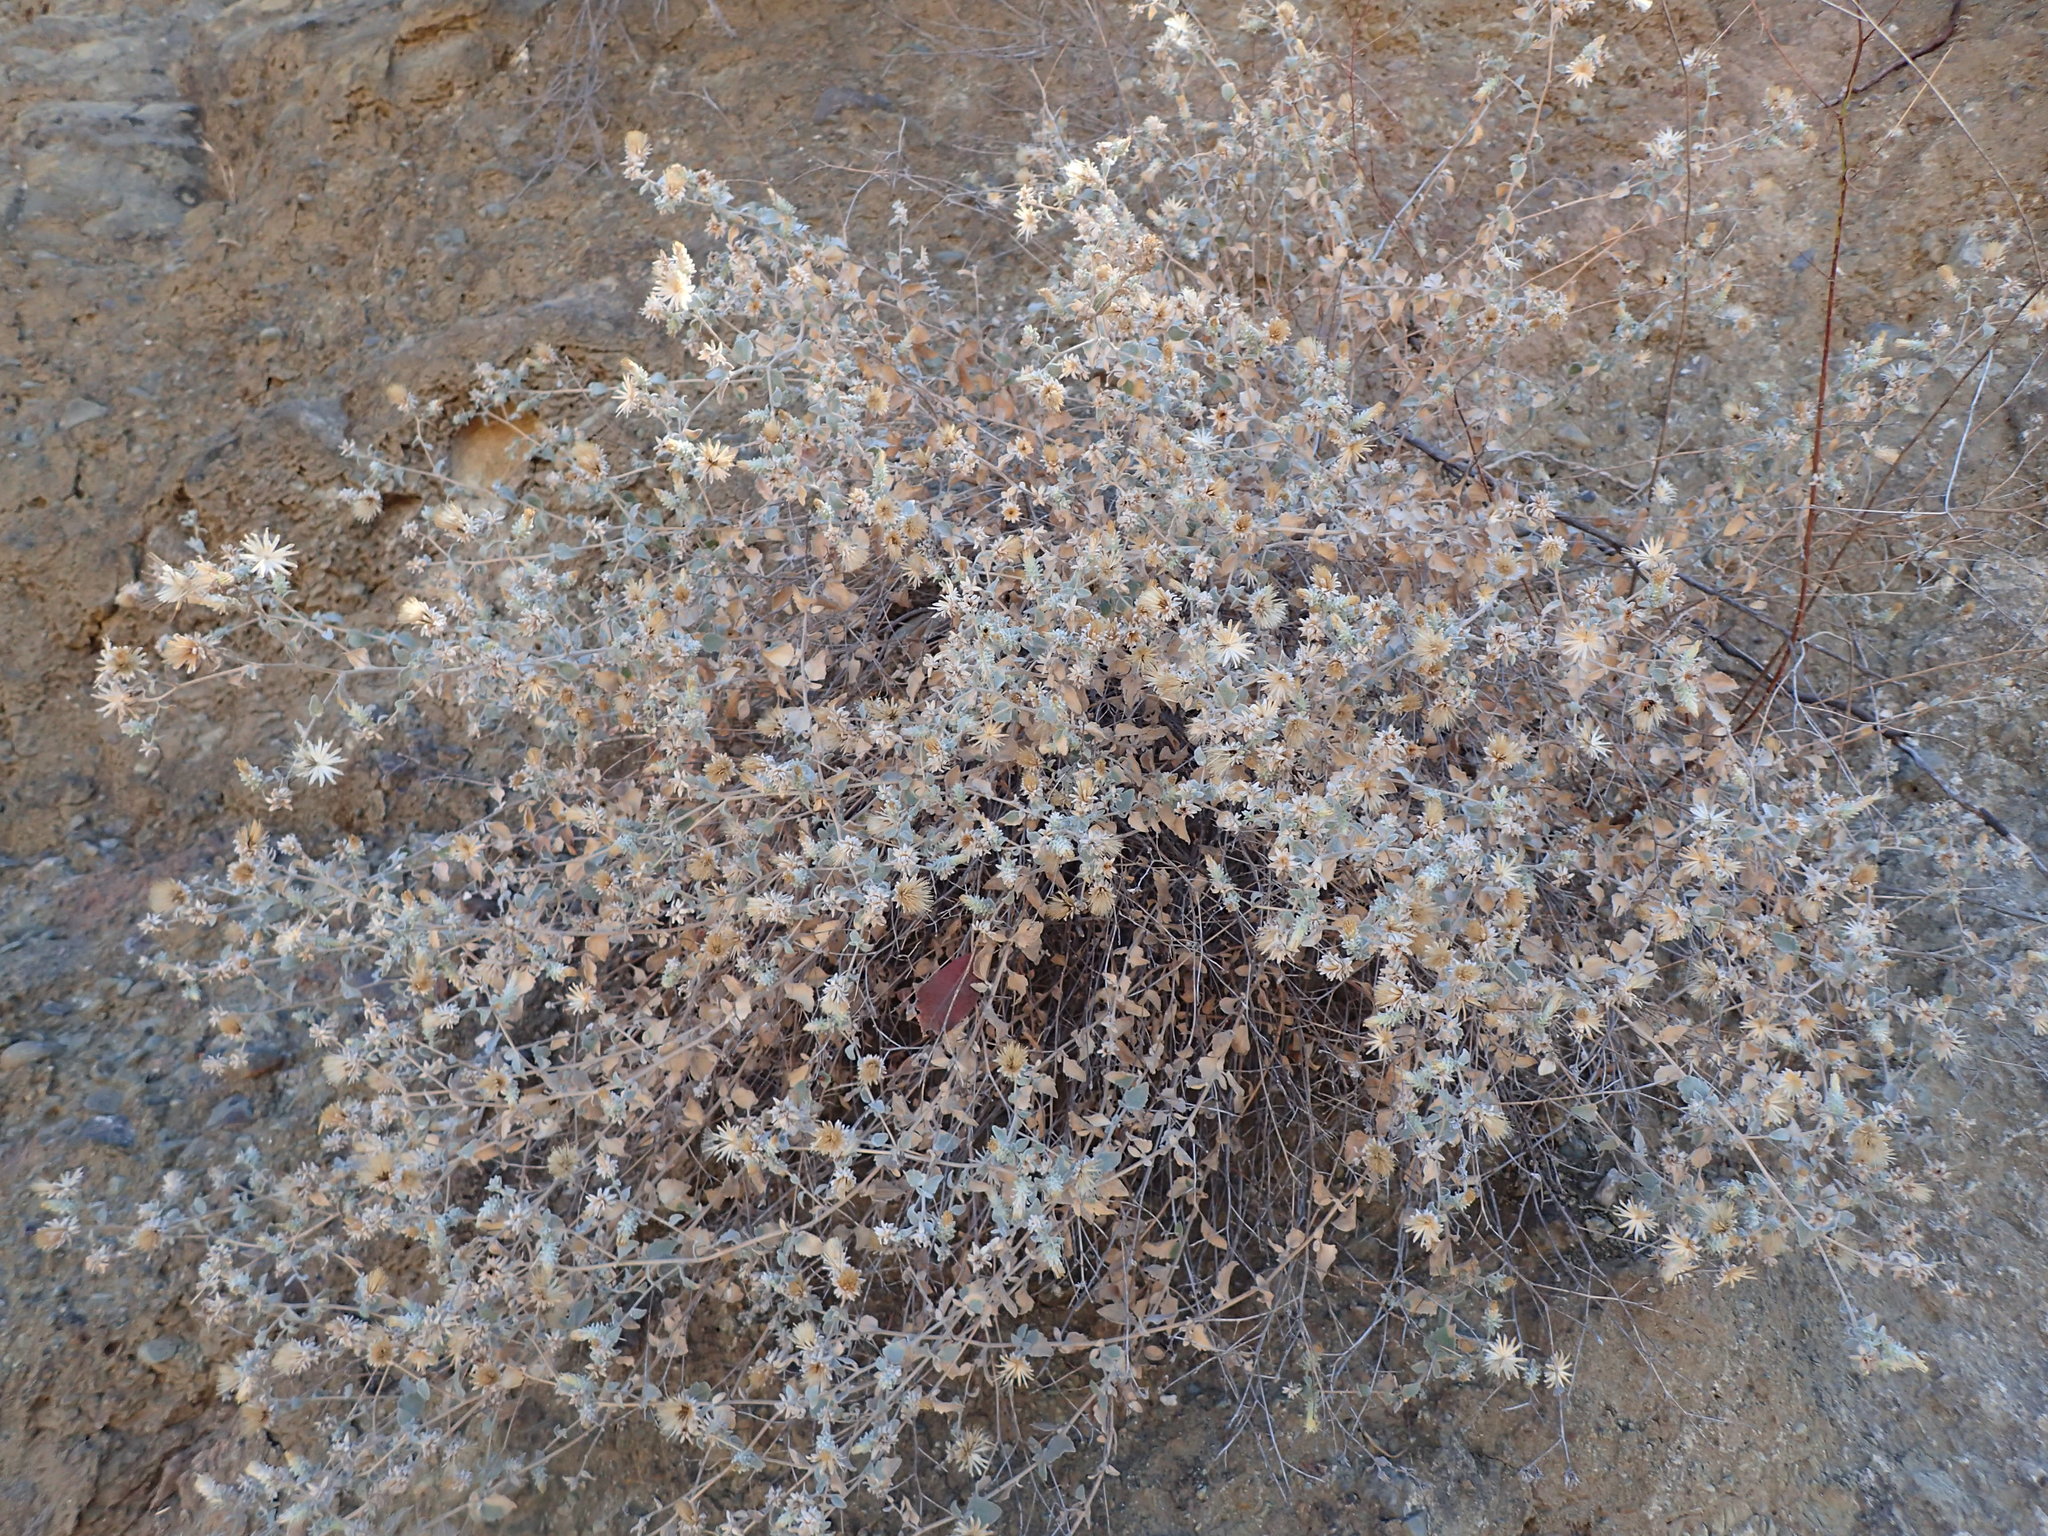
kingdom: Plantae
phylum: Tracheophyta
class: Magnoliopsida
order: Asterales
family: Asteraceae
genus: Brickellia
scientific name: Brickellia nevinii
